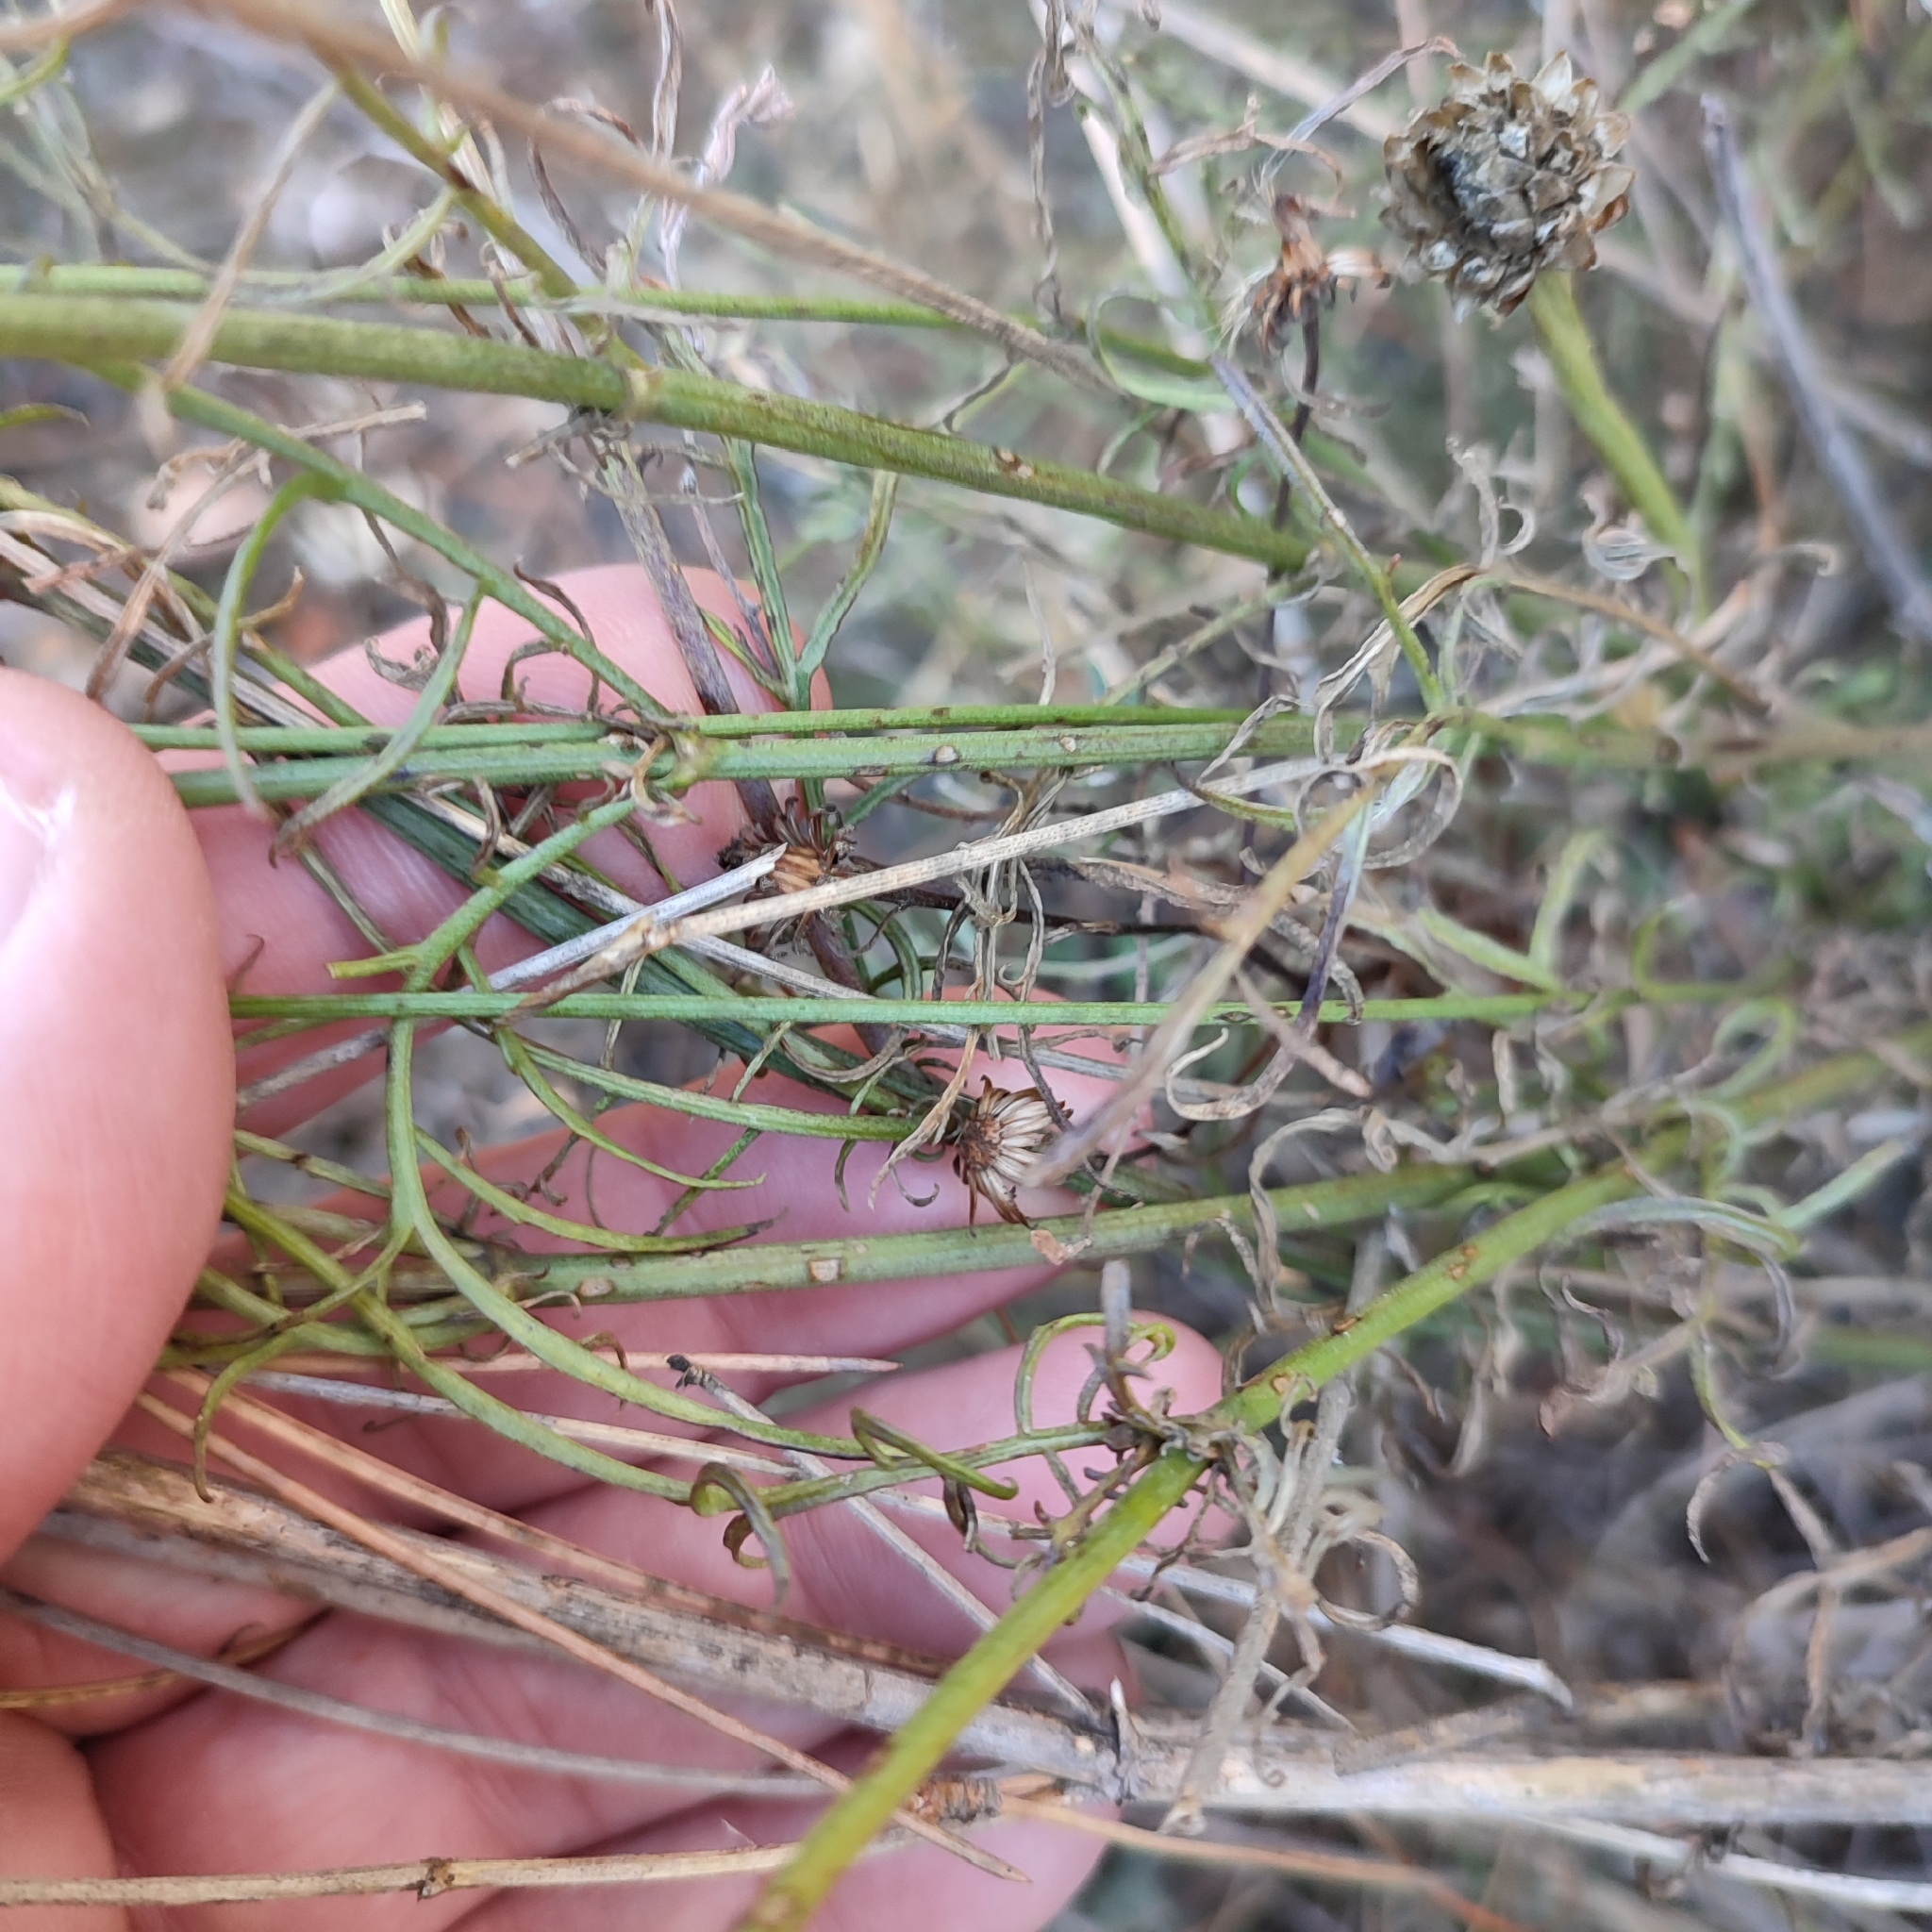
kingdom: Plantae
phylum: Tracheophyta
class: Magnoliopsida
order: Dipsacales
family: Caprifoliaceae
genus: Cephalaria
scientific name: Cephalaria leucantha
